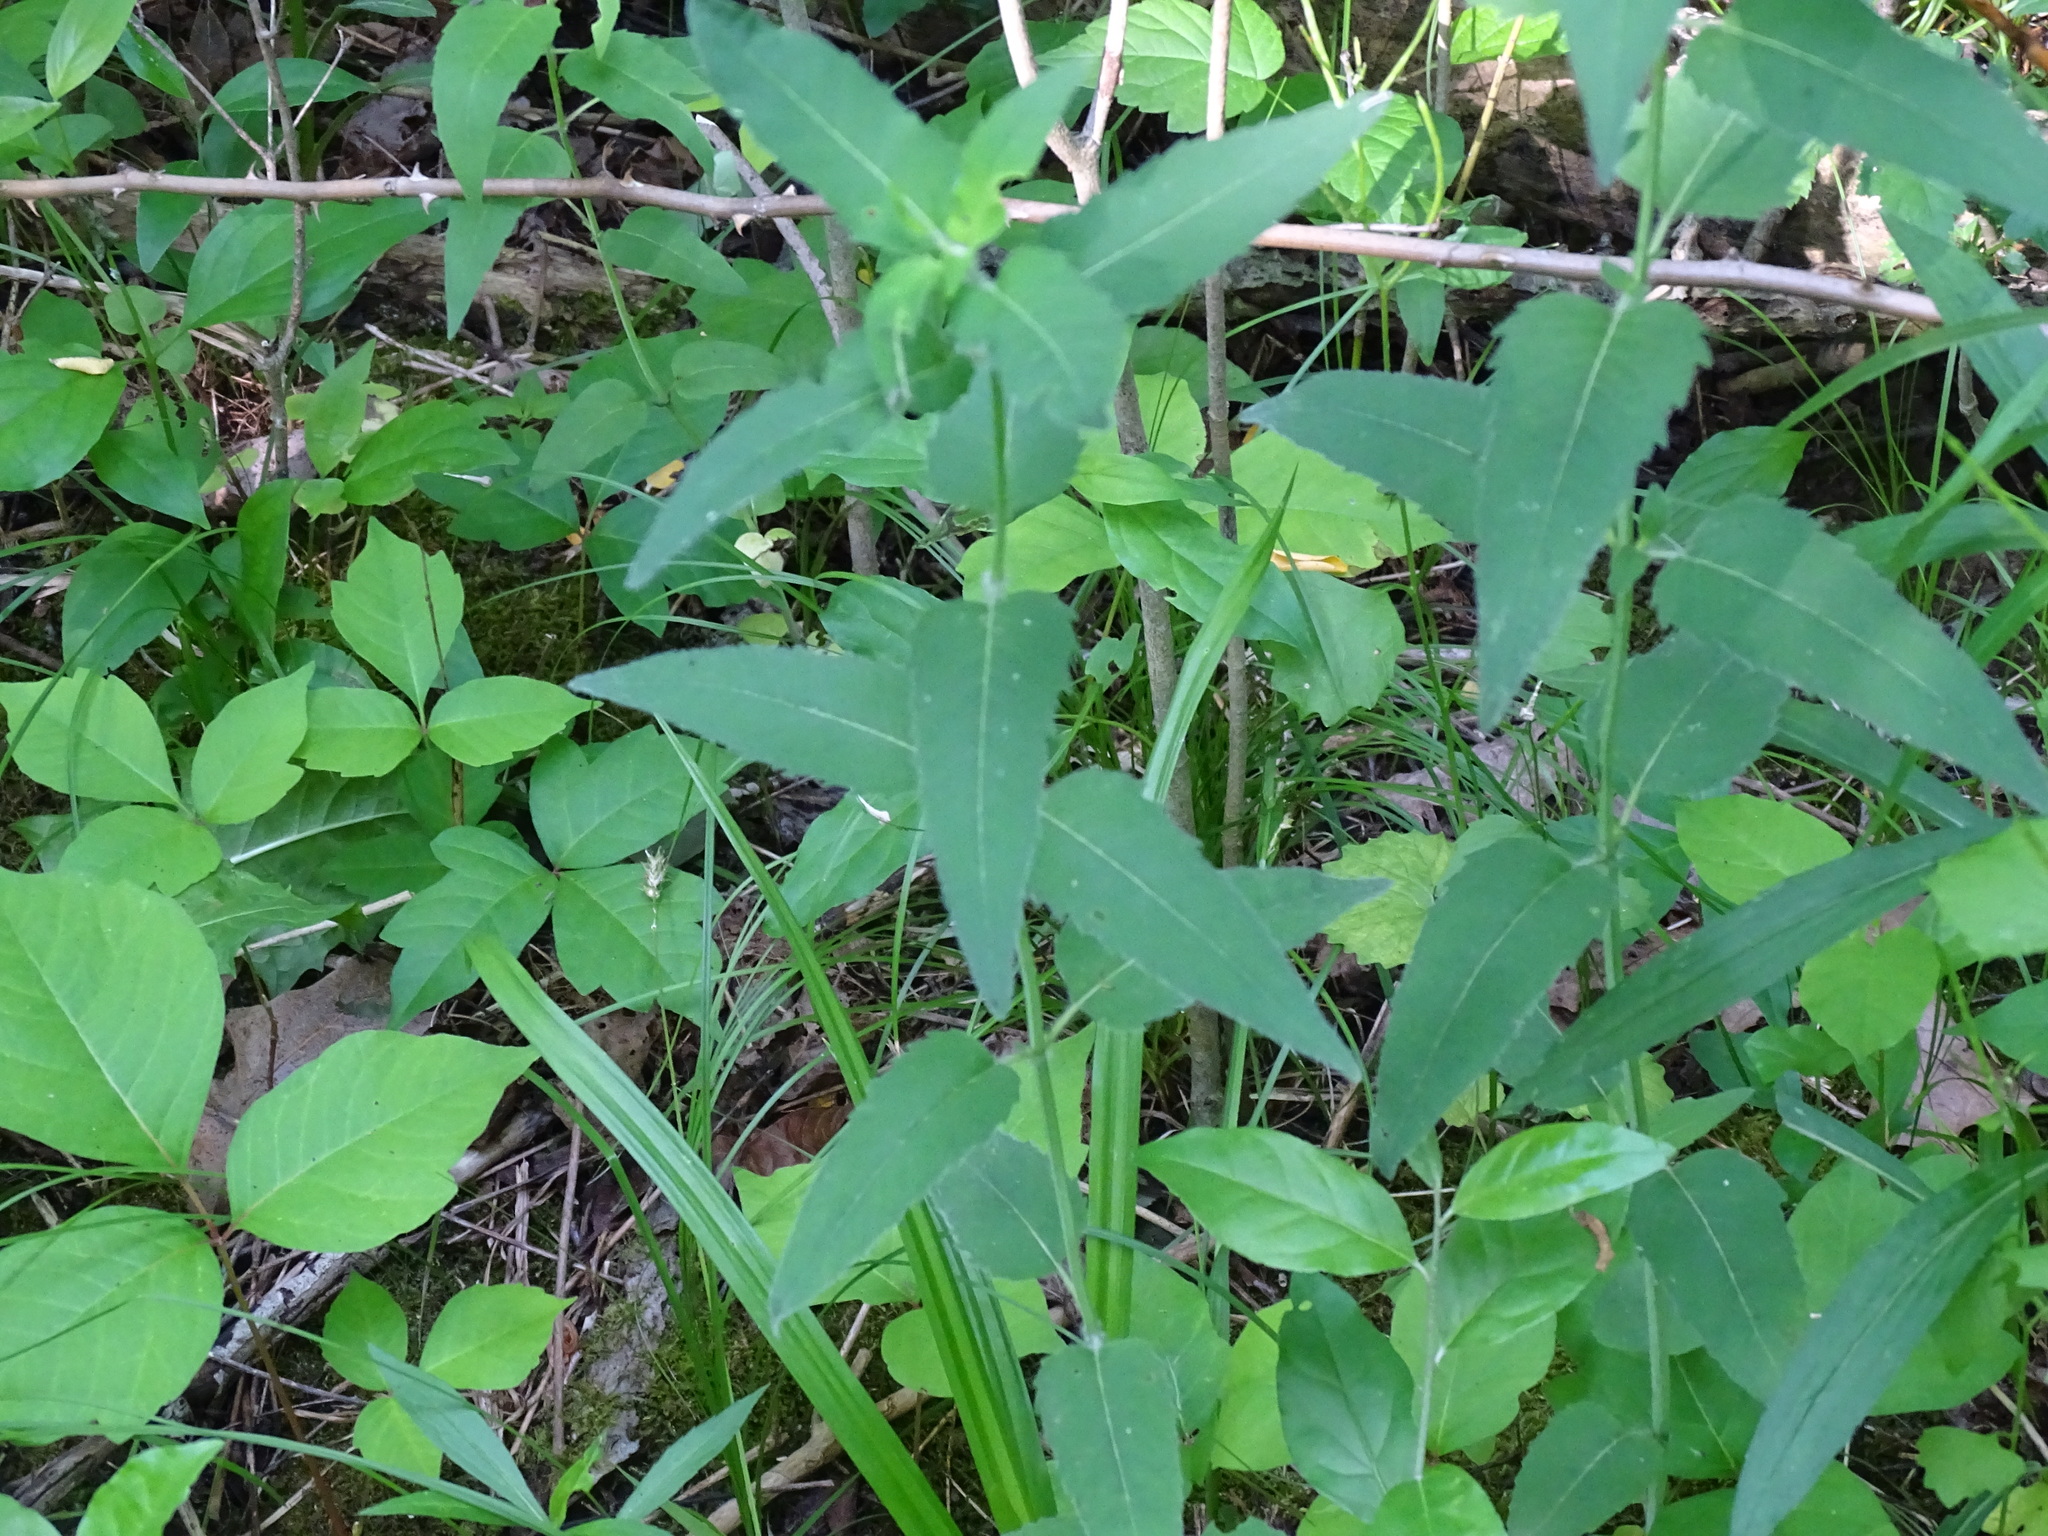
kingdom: Plantae
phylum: Tracheophyta
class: Magnoliopsida
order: Asterales
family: Asteraceae
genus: Helianthus
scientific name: Helianthus divaricatus
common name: Divergent sunflower
